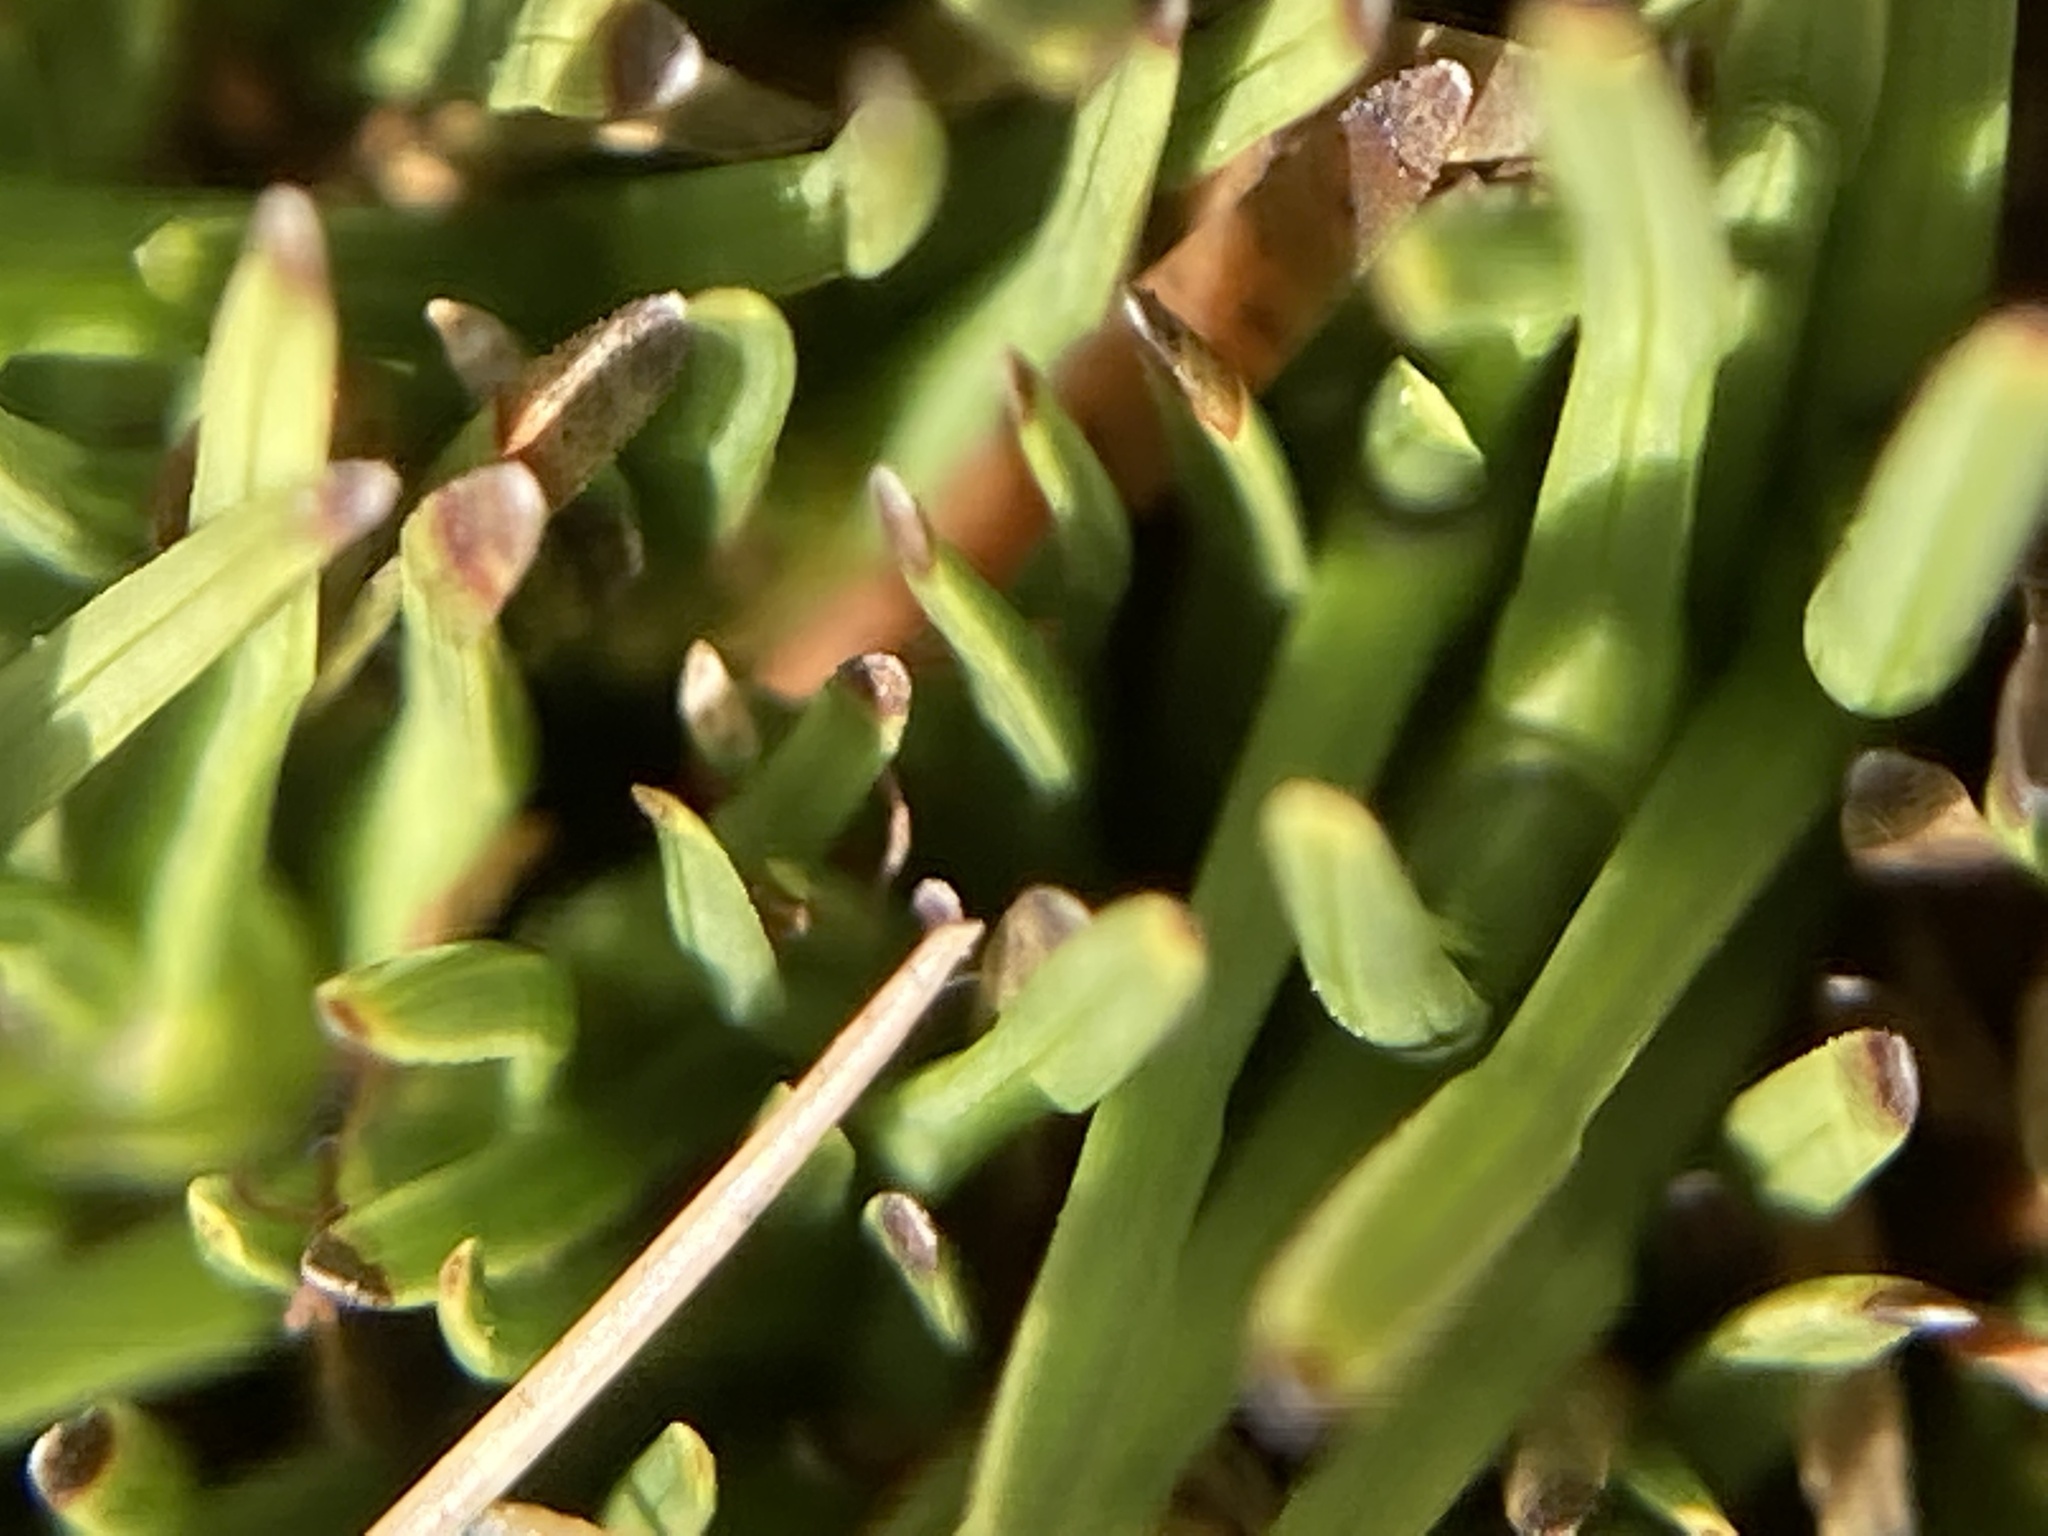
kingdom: Plantae
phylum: Tracheophyta
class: Liliopsida
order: Poales
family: Cyperaceae
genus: Oreobolus
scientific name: Oreobolus pectinatus
